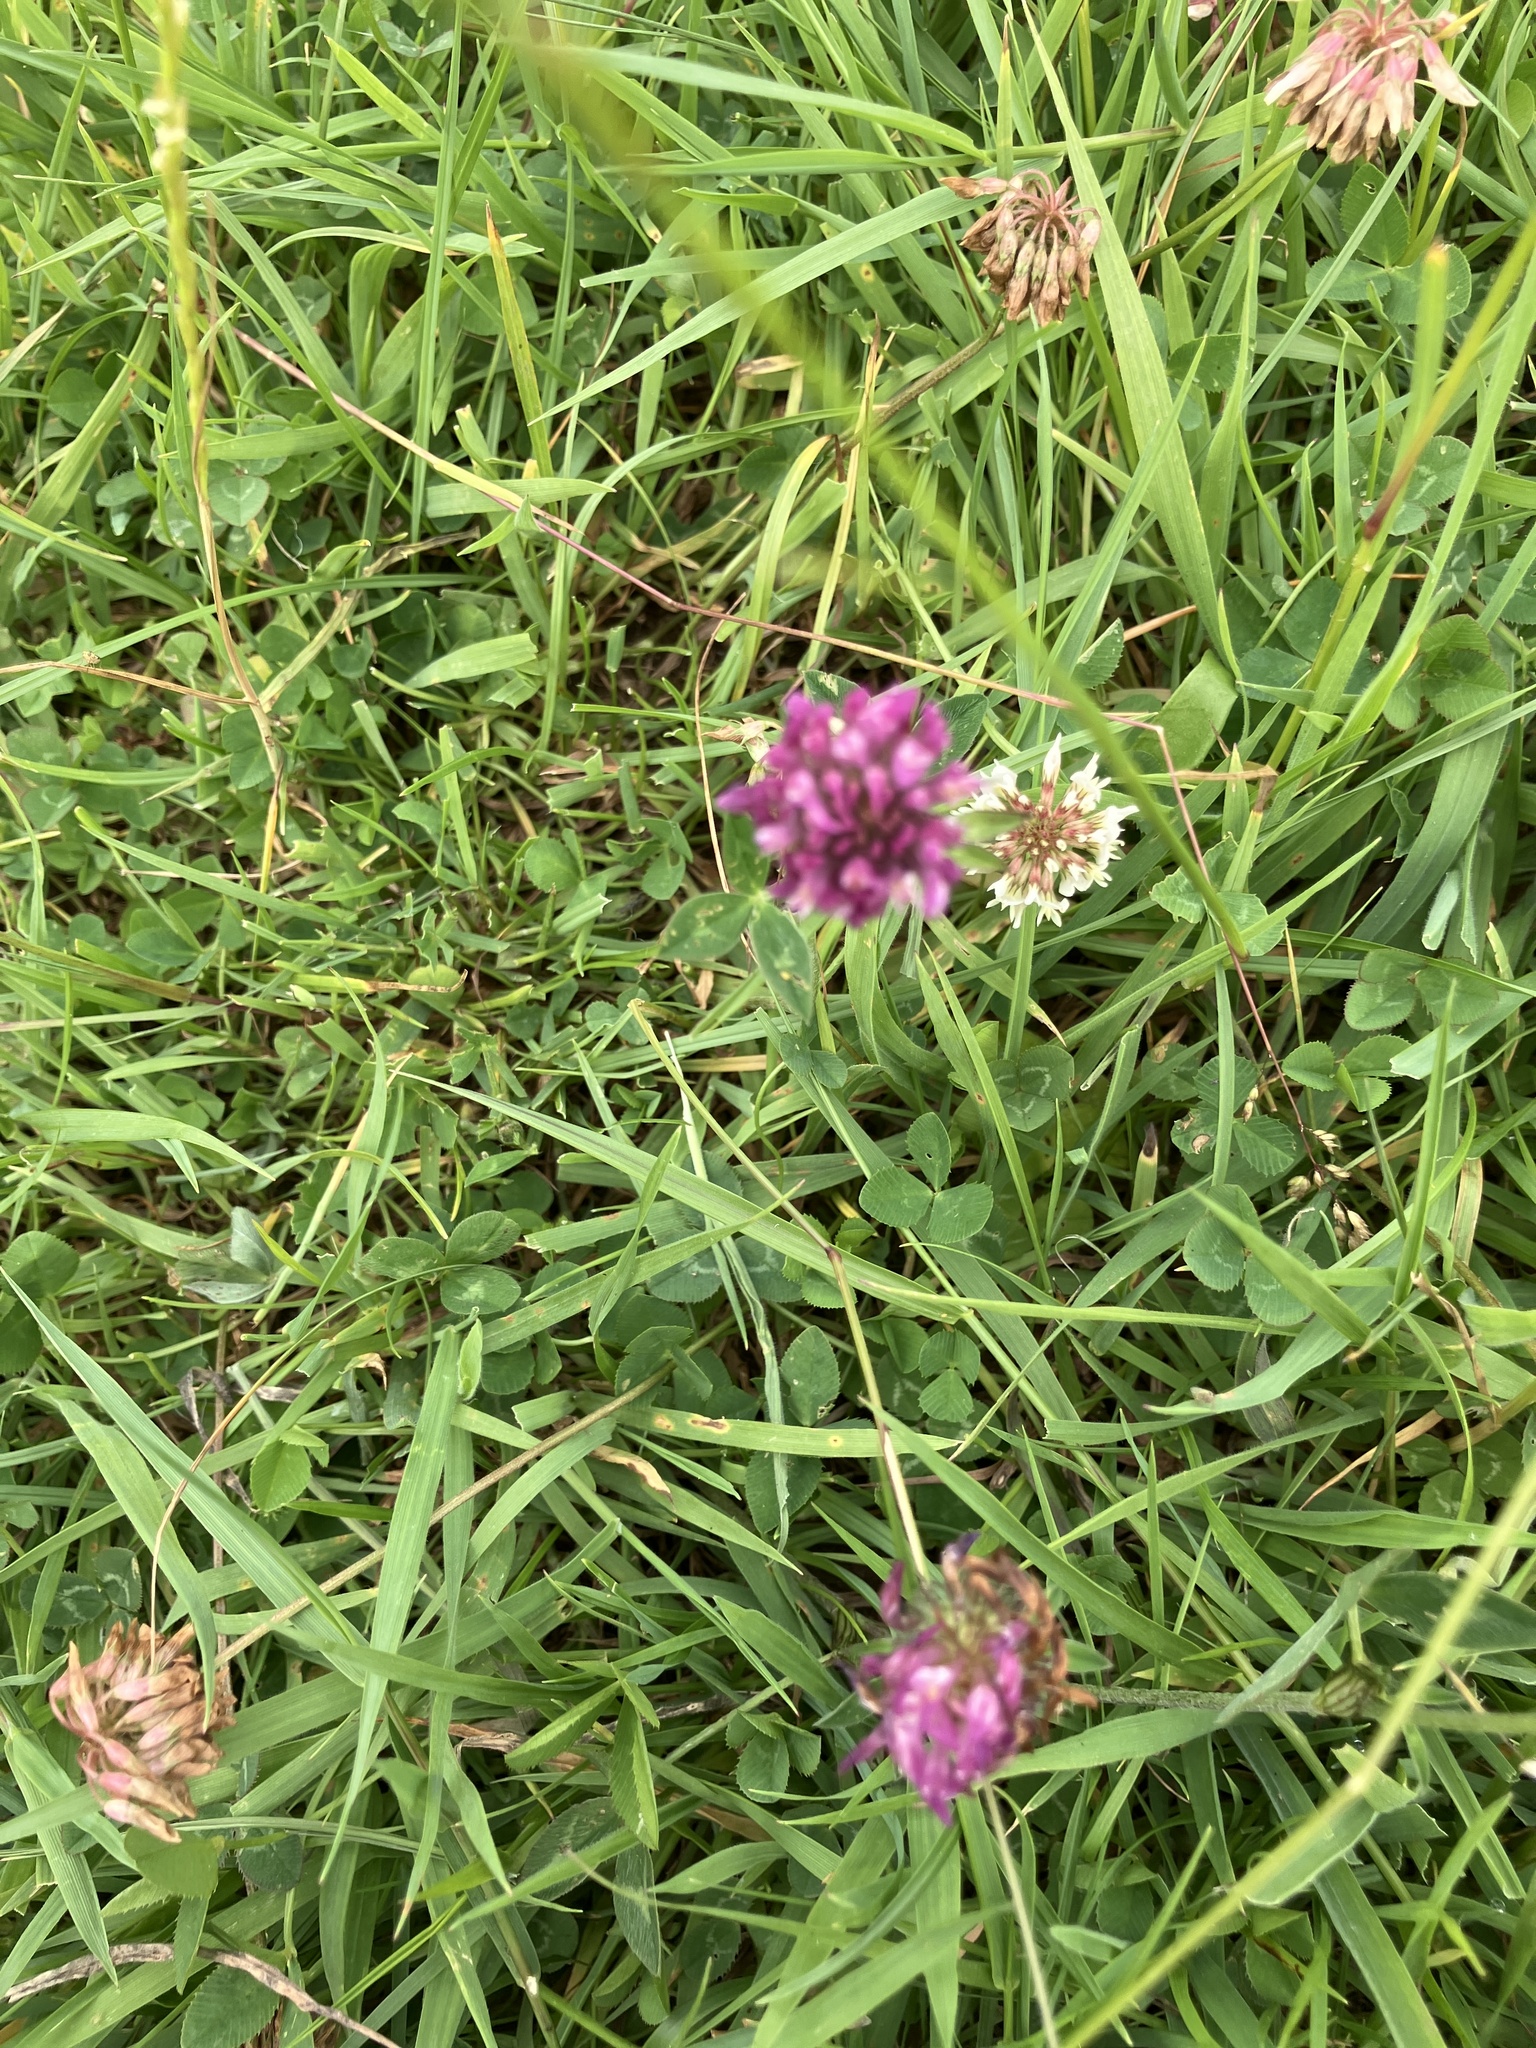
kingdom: Plantae
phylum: Tracheophyta
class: Magnoliopsida
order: Fabales
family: Fabaceae
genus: Trifolium
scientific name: Trifolium pratense
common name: Red clover
